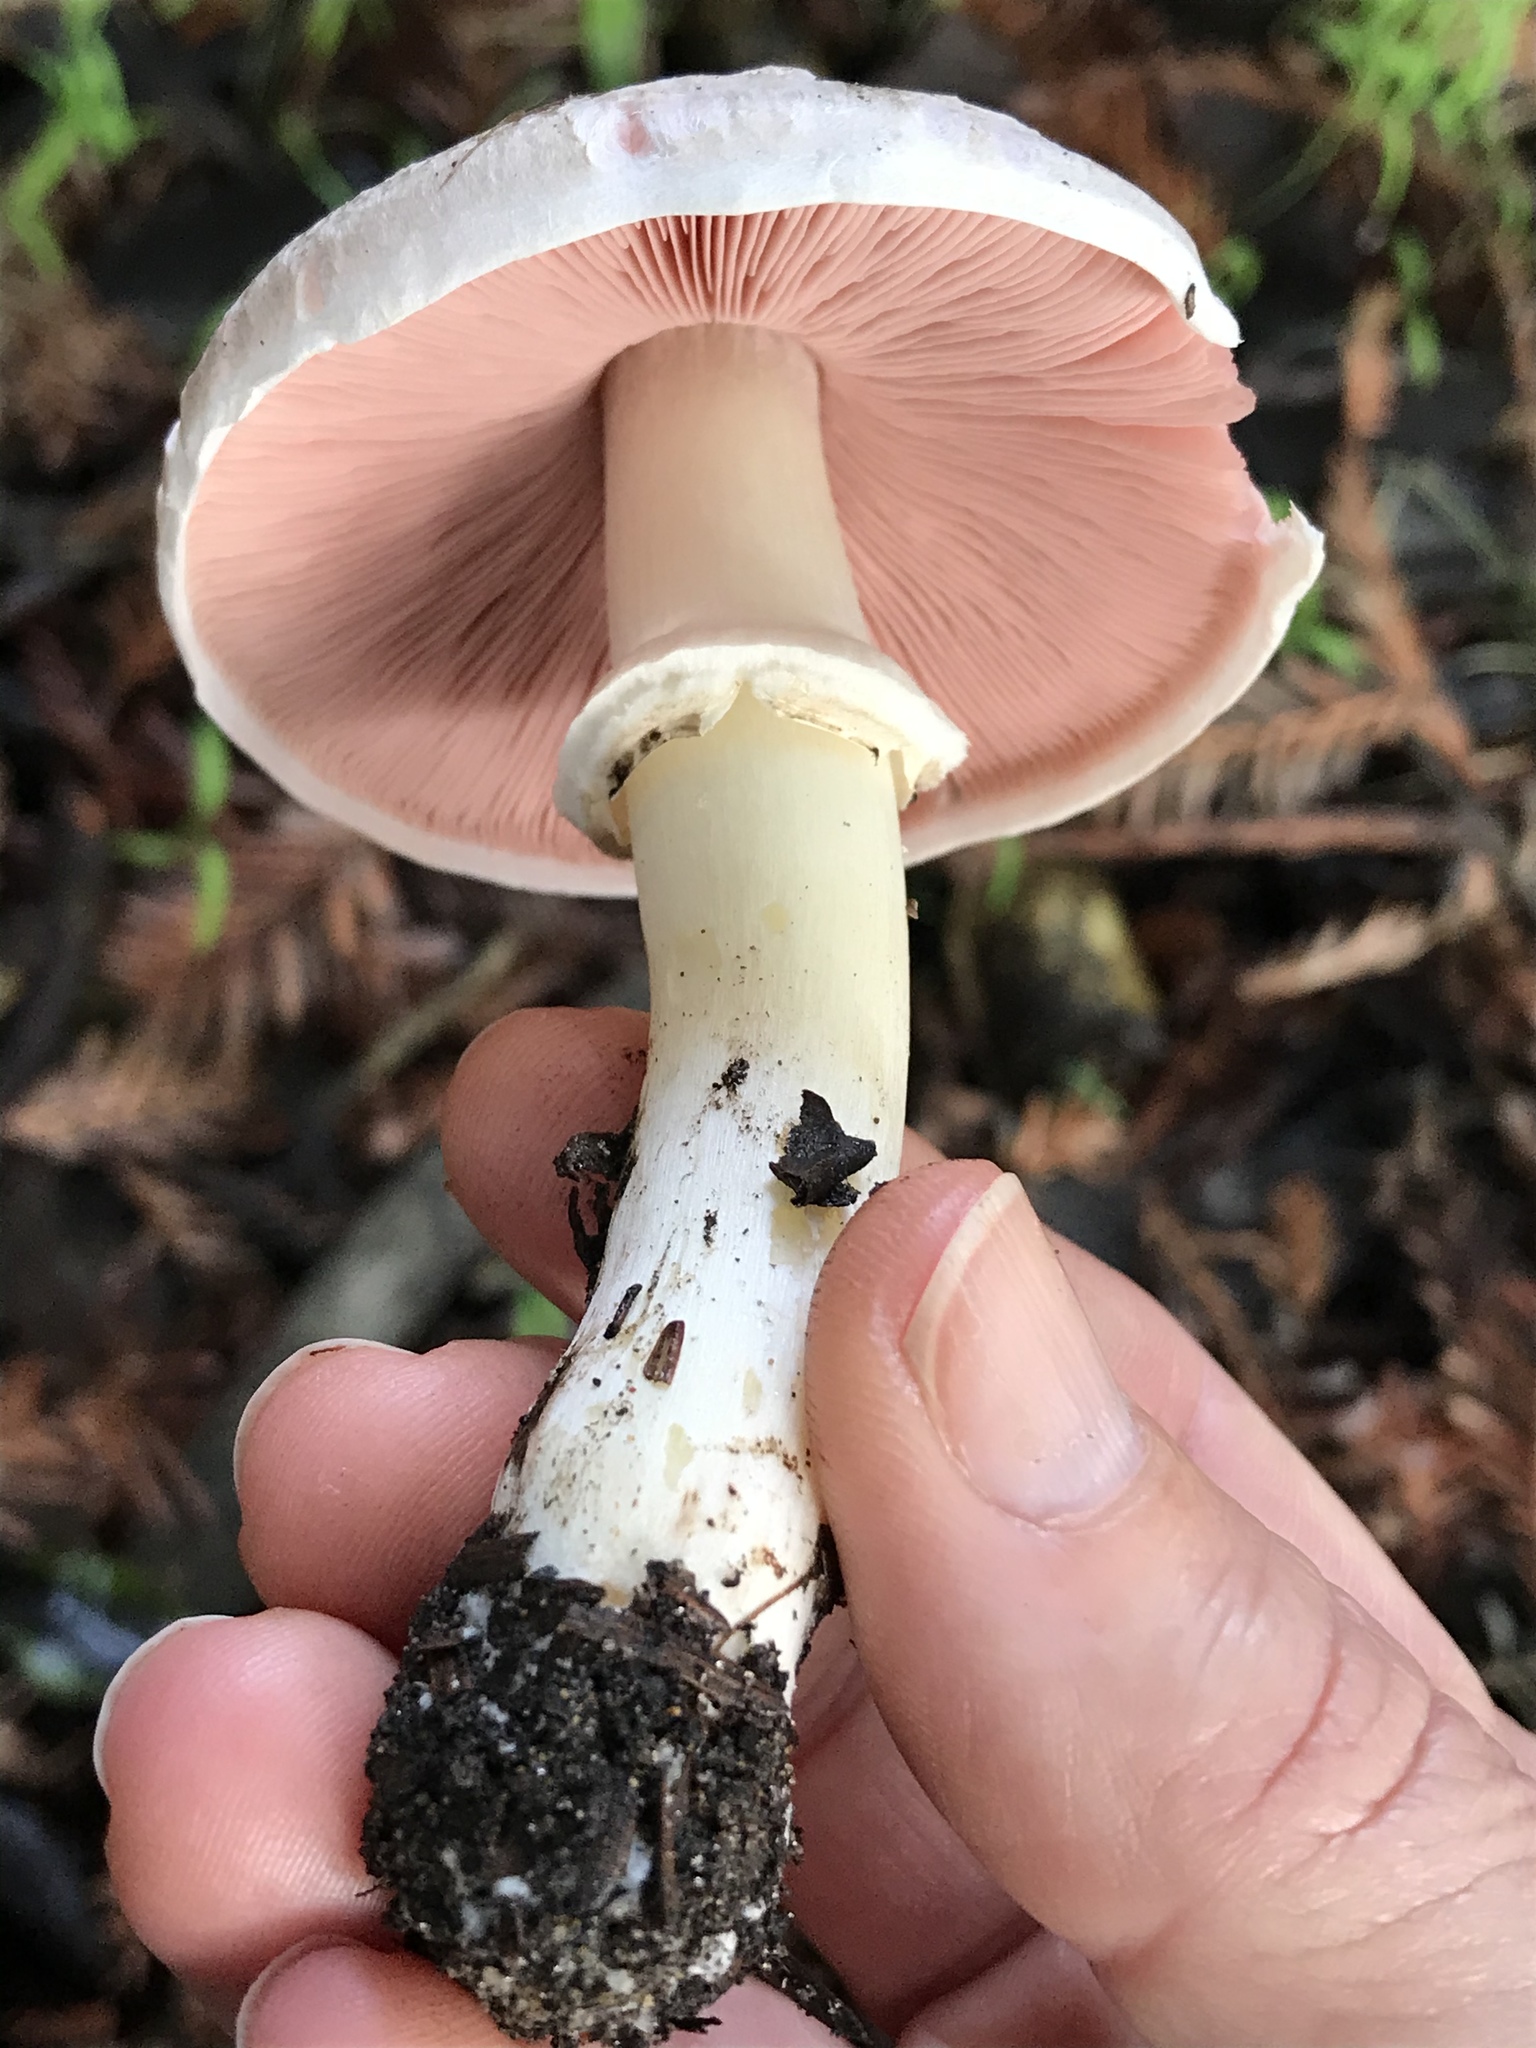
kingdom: Fungi
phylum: Basidiomycota
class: Agaricomycetes
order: Agaricales
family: Agaricaceae
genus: Agaricus
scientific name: Agaricus californicus
